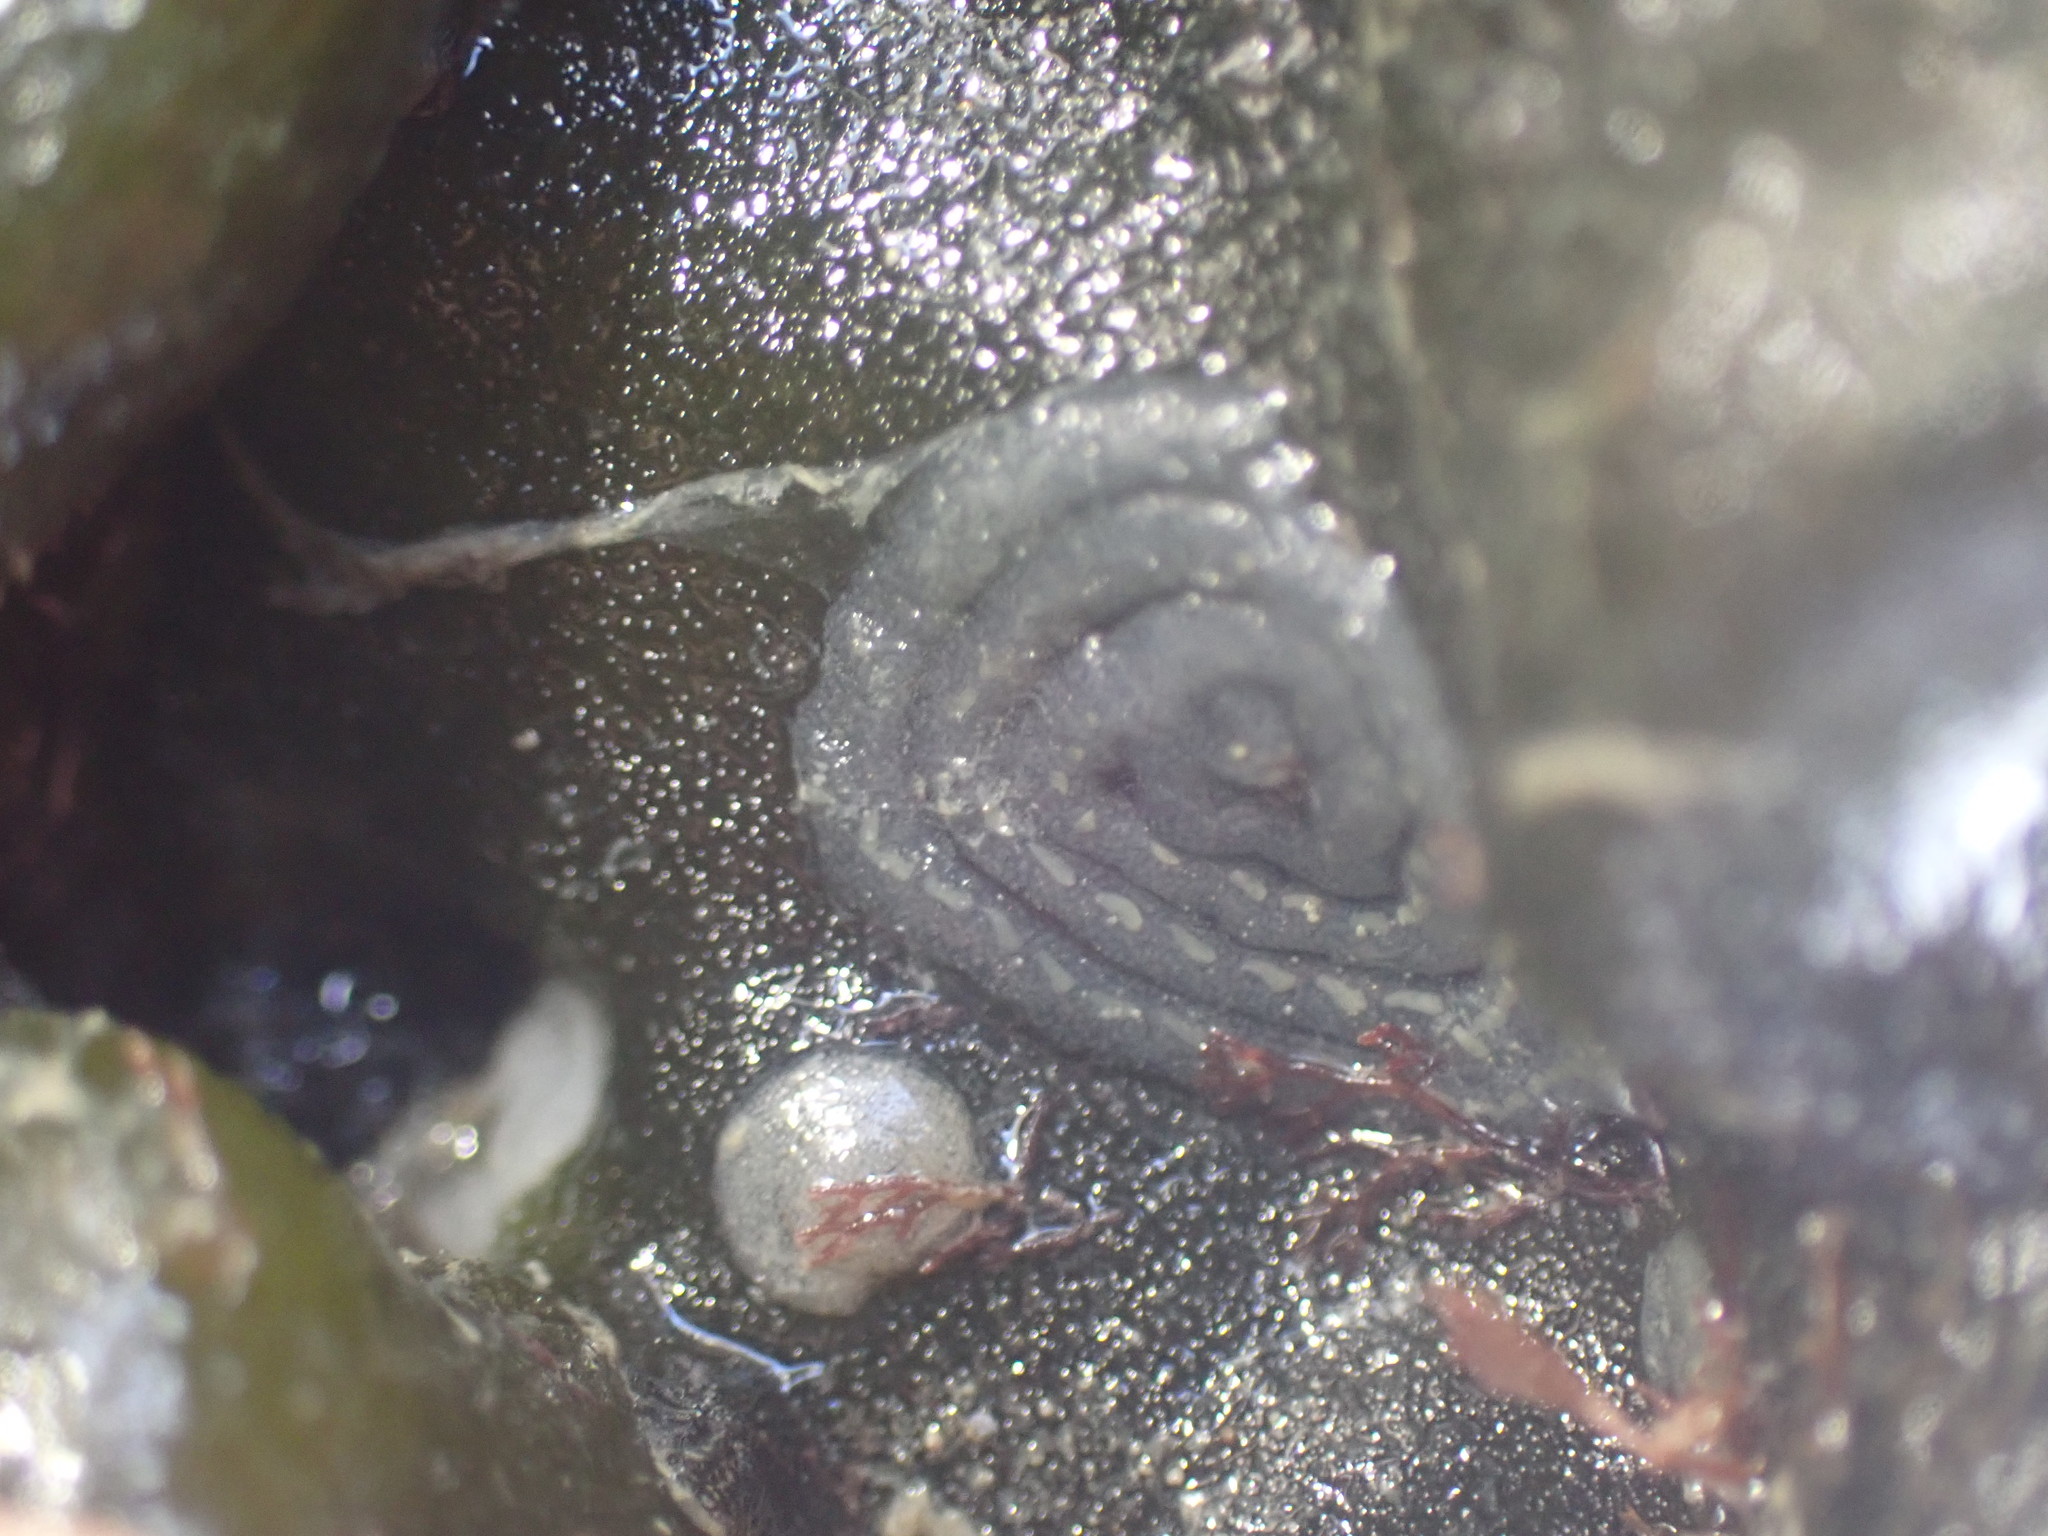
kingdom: Animalia
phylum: Mollusca
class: Gastropoda
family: Plakobranchidae
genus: Elysia
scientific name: Elysia maoria
